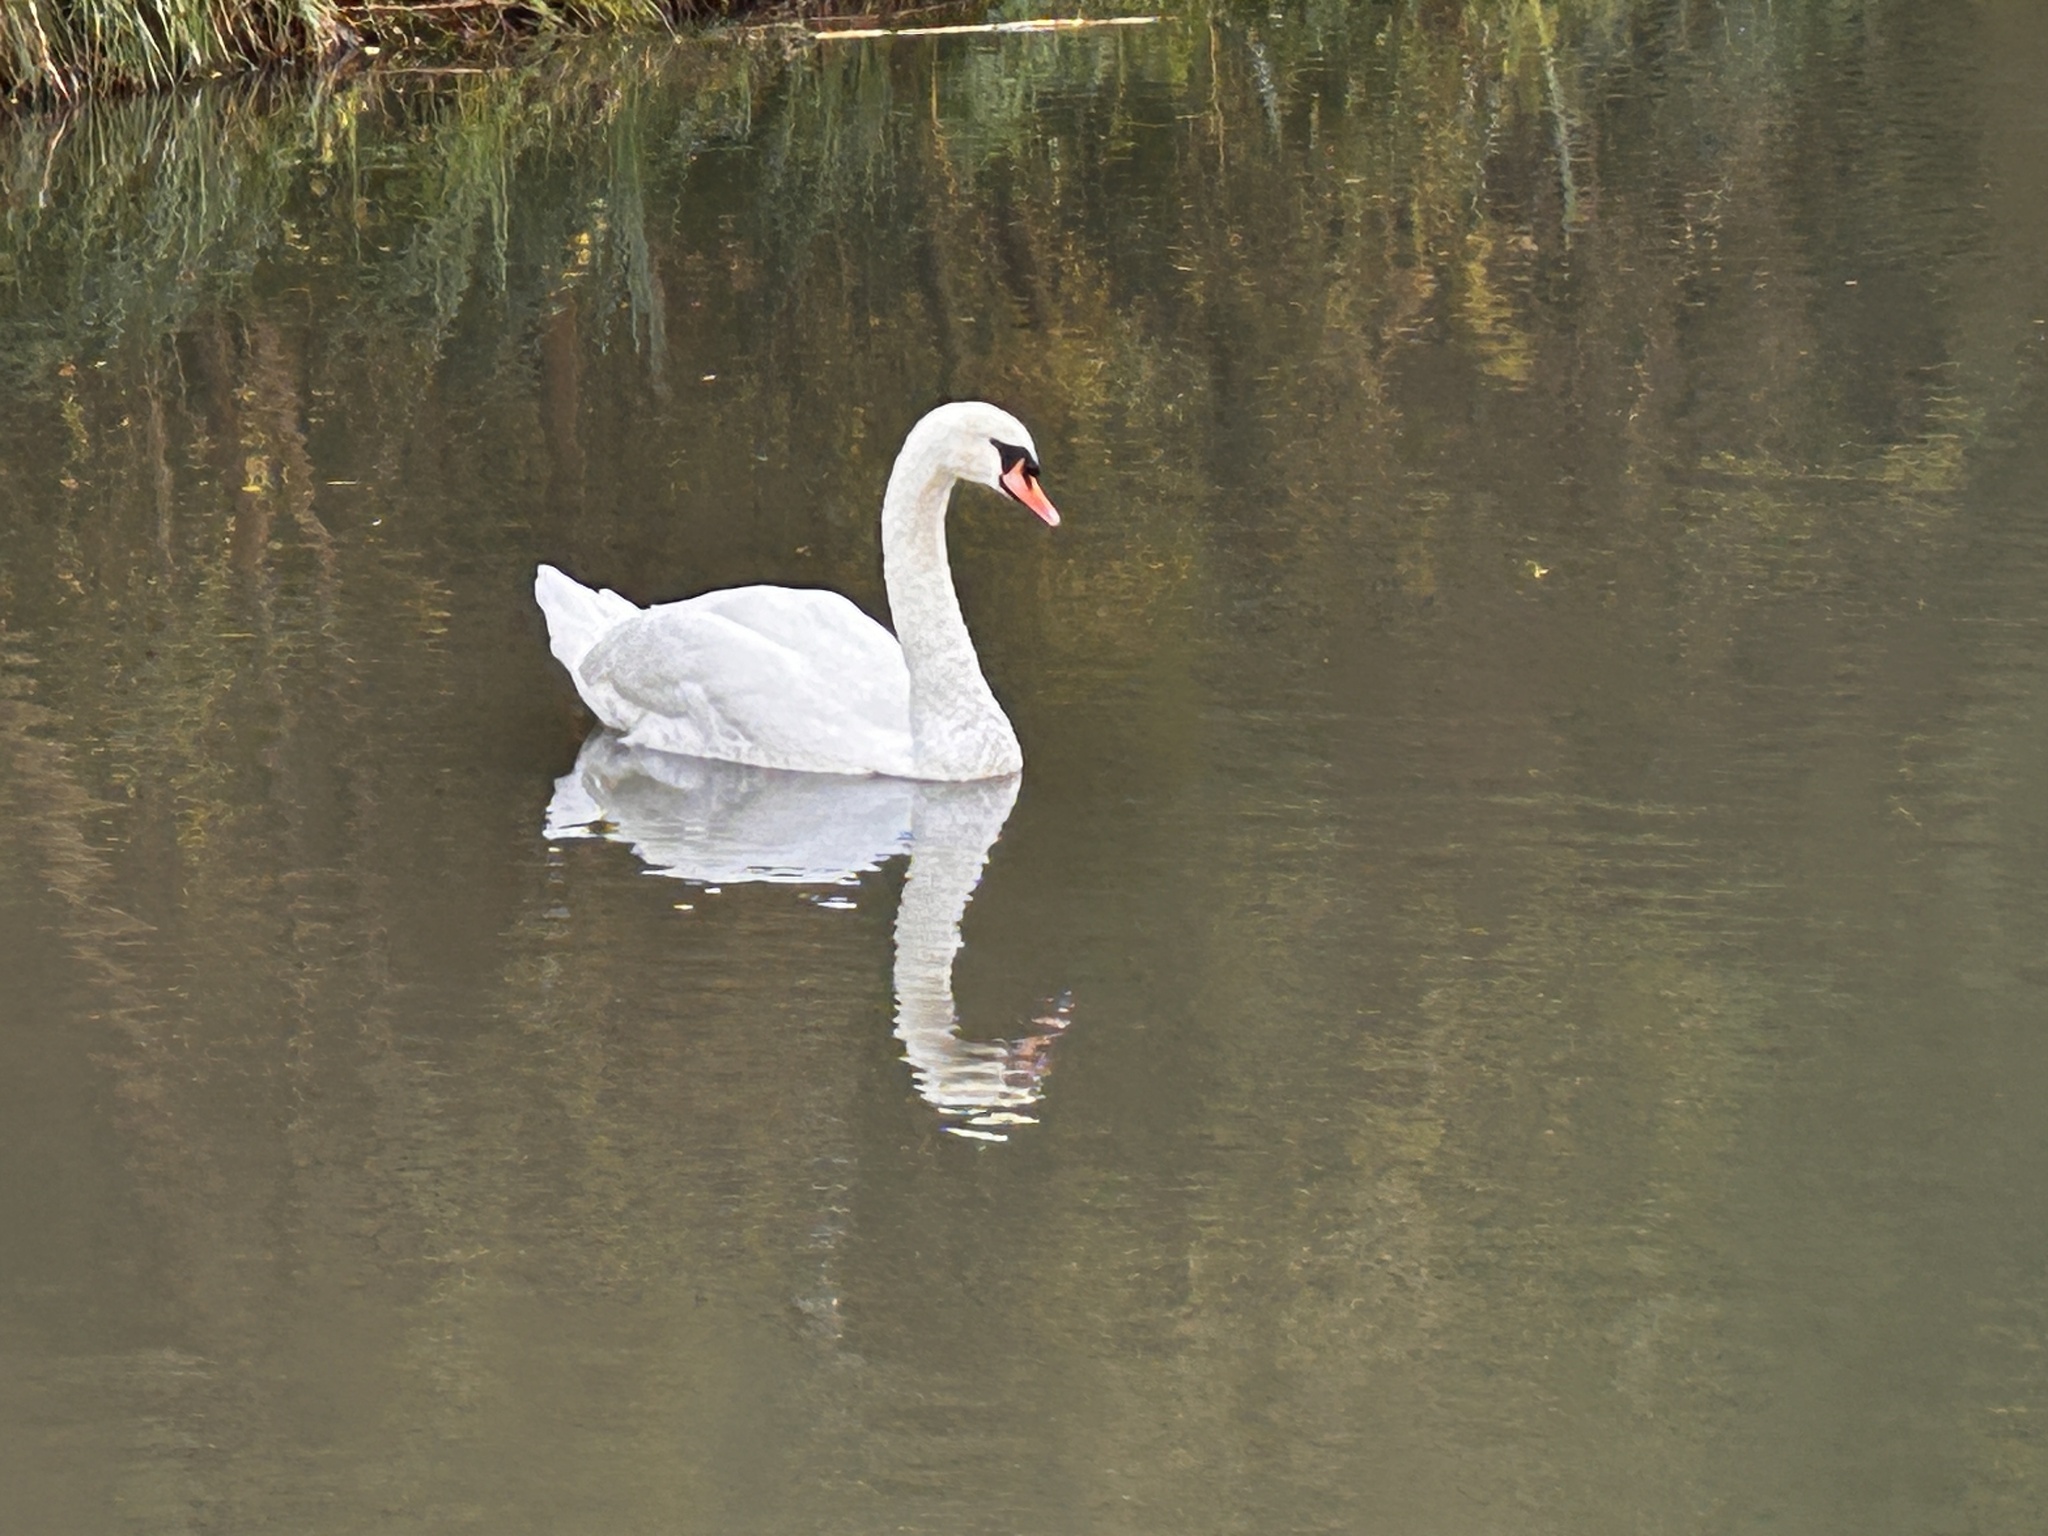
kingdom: Animalia
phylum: Chordata
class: Aves
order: Anseriformes
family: Anatidae
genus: Cygnus
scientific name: Cygnus olor
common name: Mute swan
